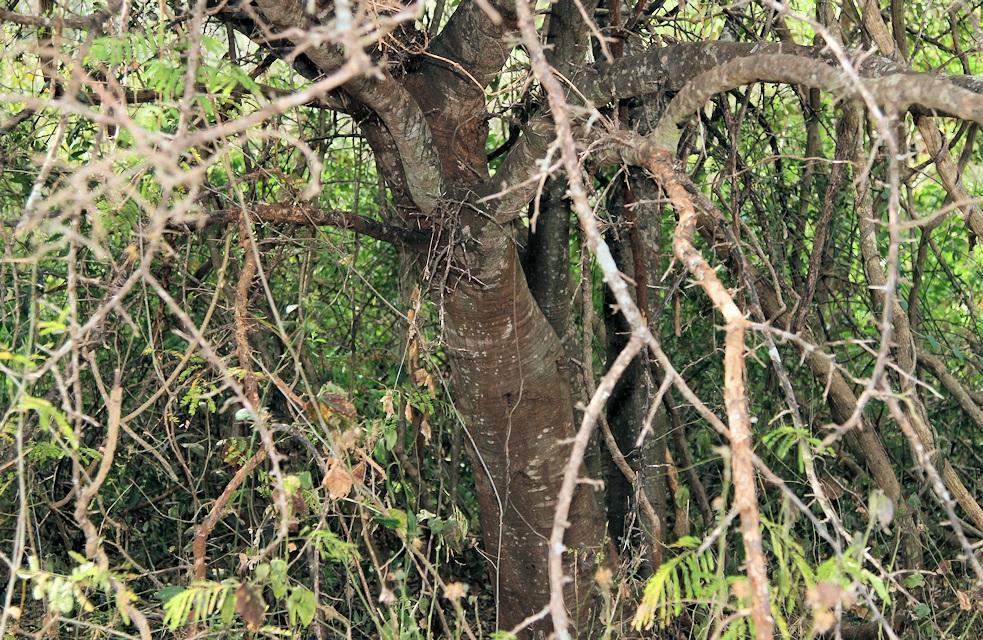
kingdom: Plantae
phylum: Tracheophyta
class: Magnoliopsida
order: Fabales
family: Fabaceae
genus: Albizia
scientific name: Albizia anthelmintica
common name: Worm-bark false-thorn
